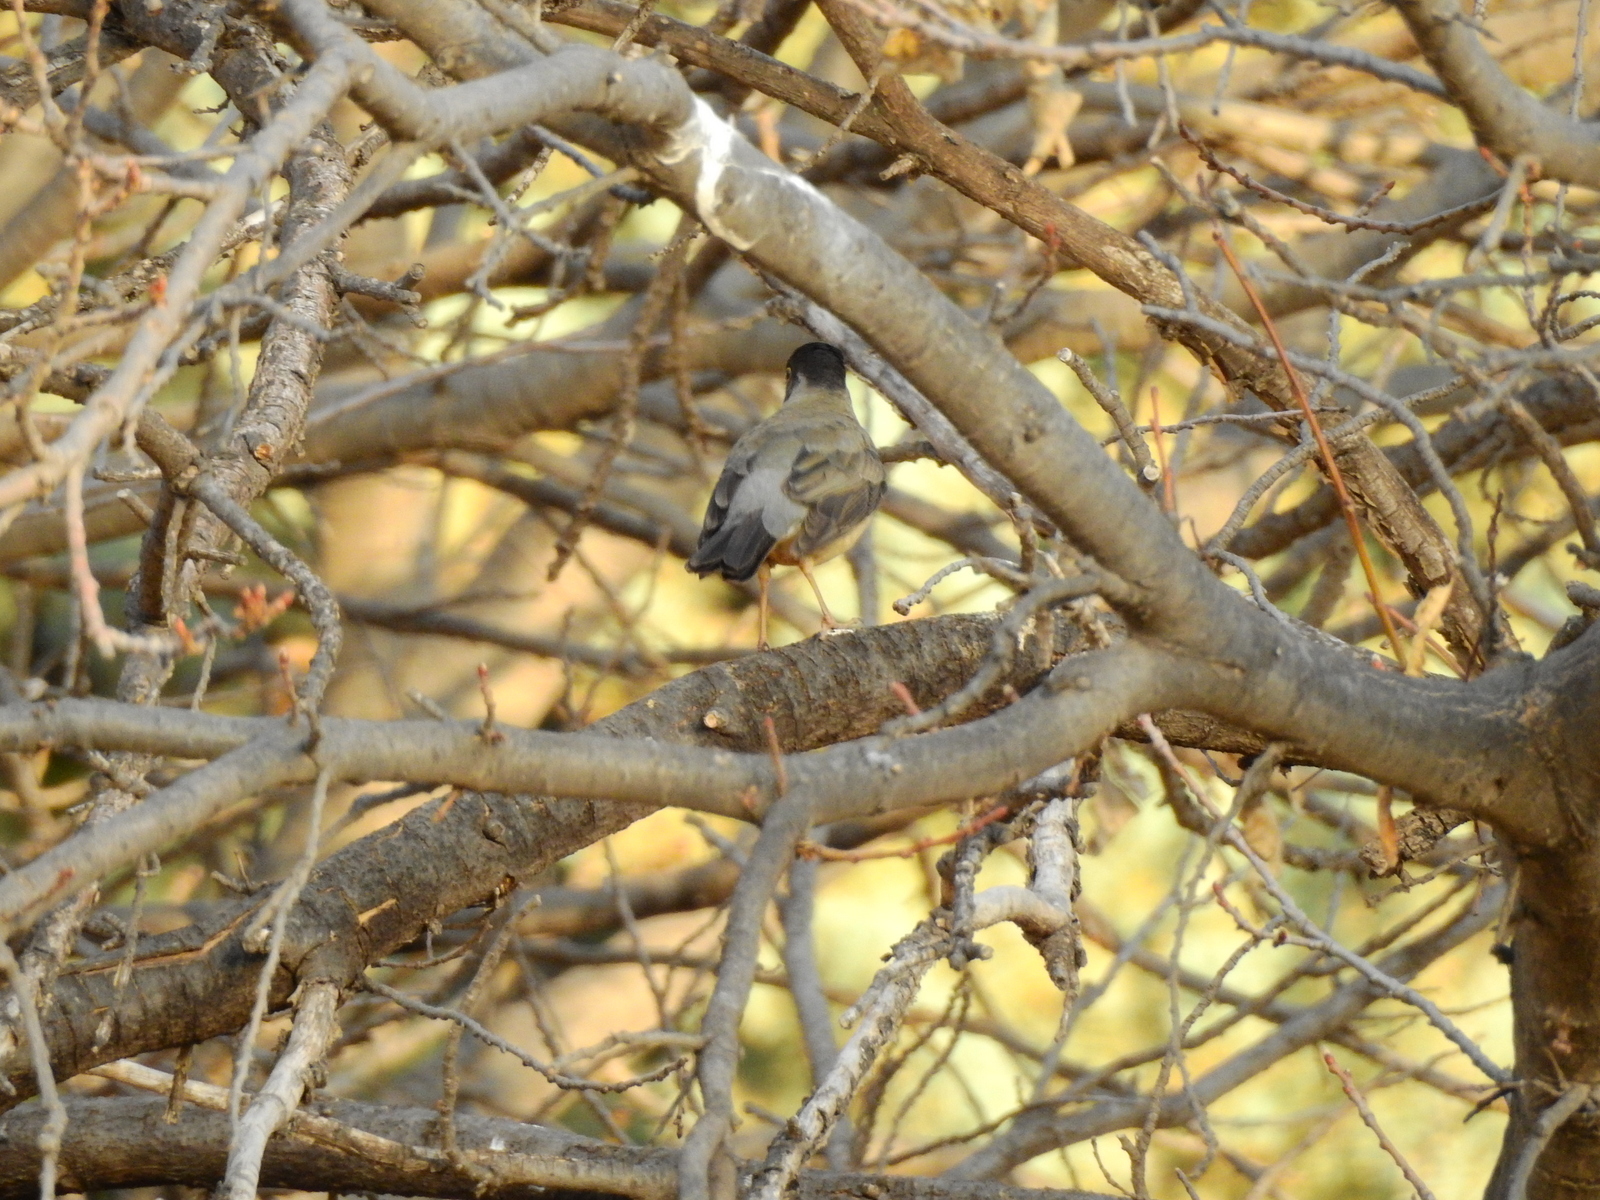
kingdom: Animalia
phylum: Chordata
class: Aves
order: Passeriformes
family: Turdidae
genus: Turdus
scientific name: Turdus falcklandii
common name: Austral thrush
